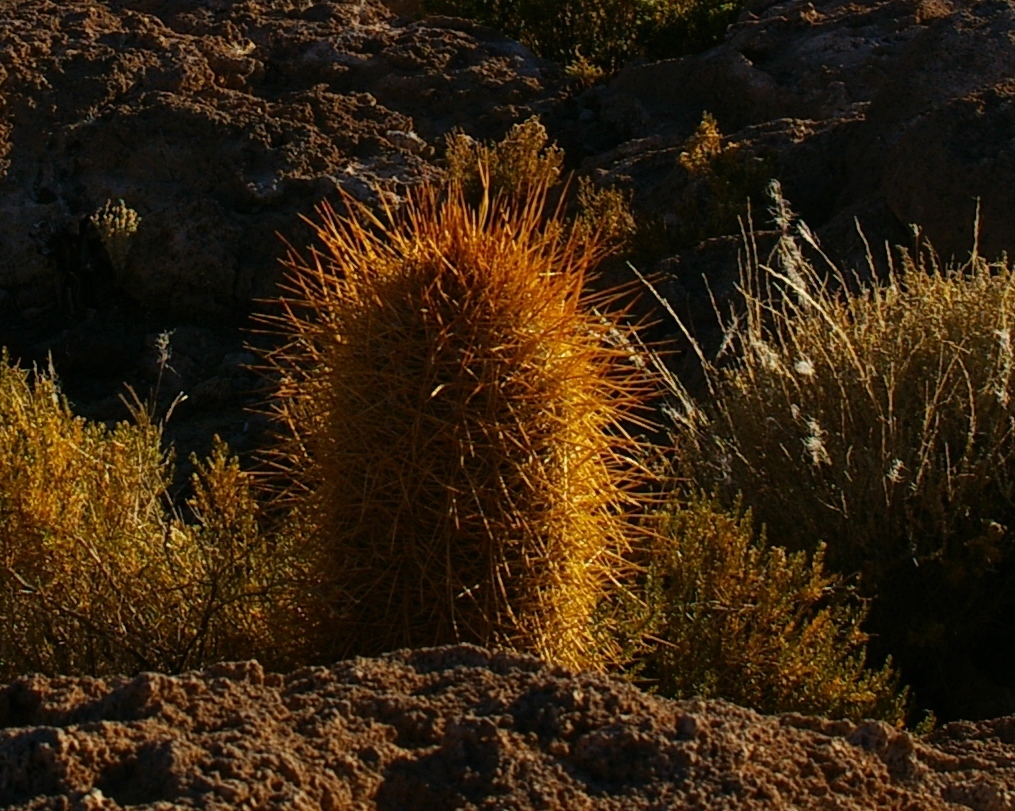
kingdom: Plantae
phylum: Tracheophyta
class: Magnoliopsida
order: Caryophyllales
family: Cactaceae
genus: Leucostele
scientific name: Leucostele atacamensis
